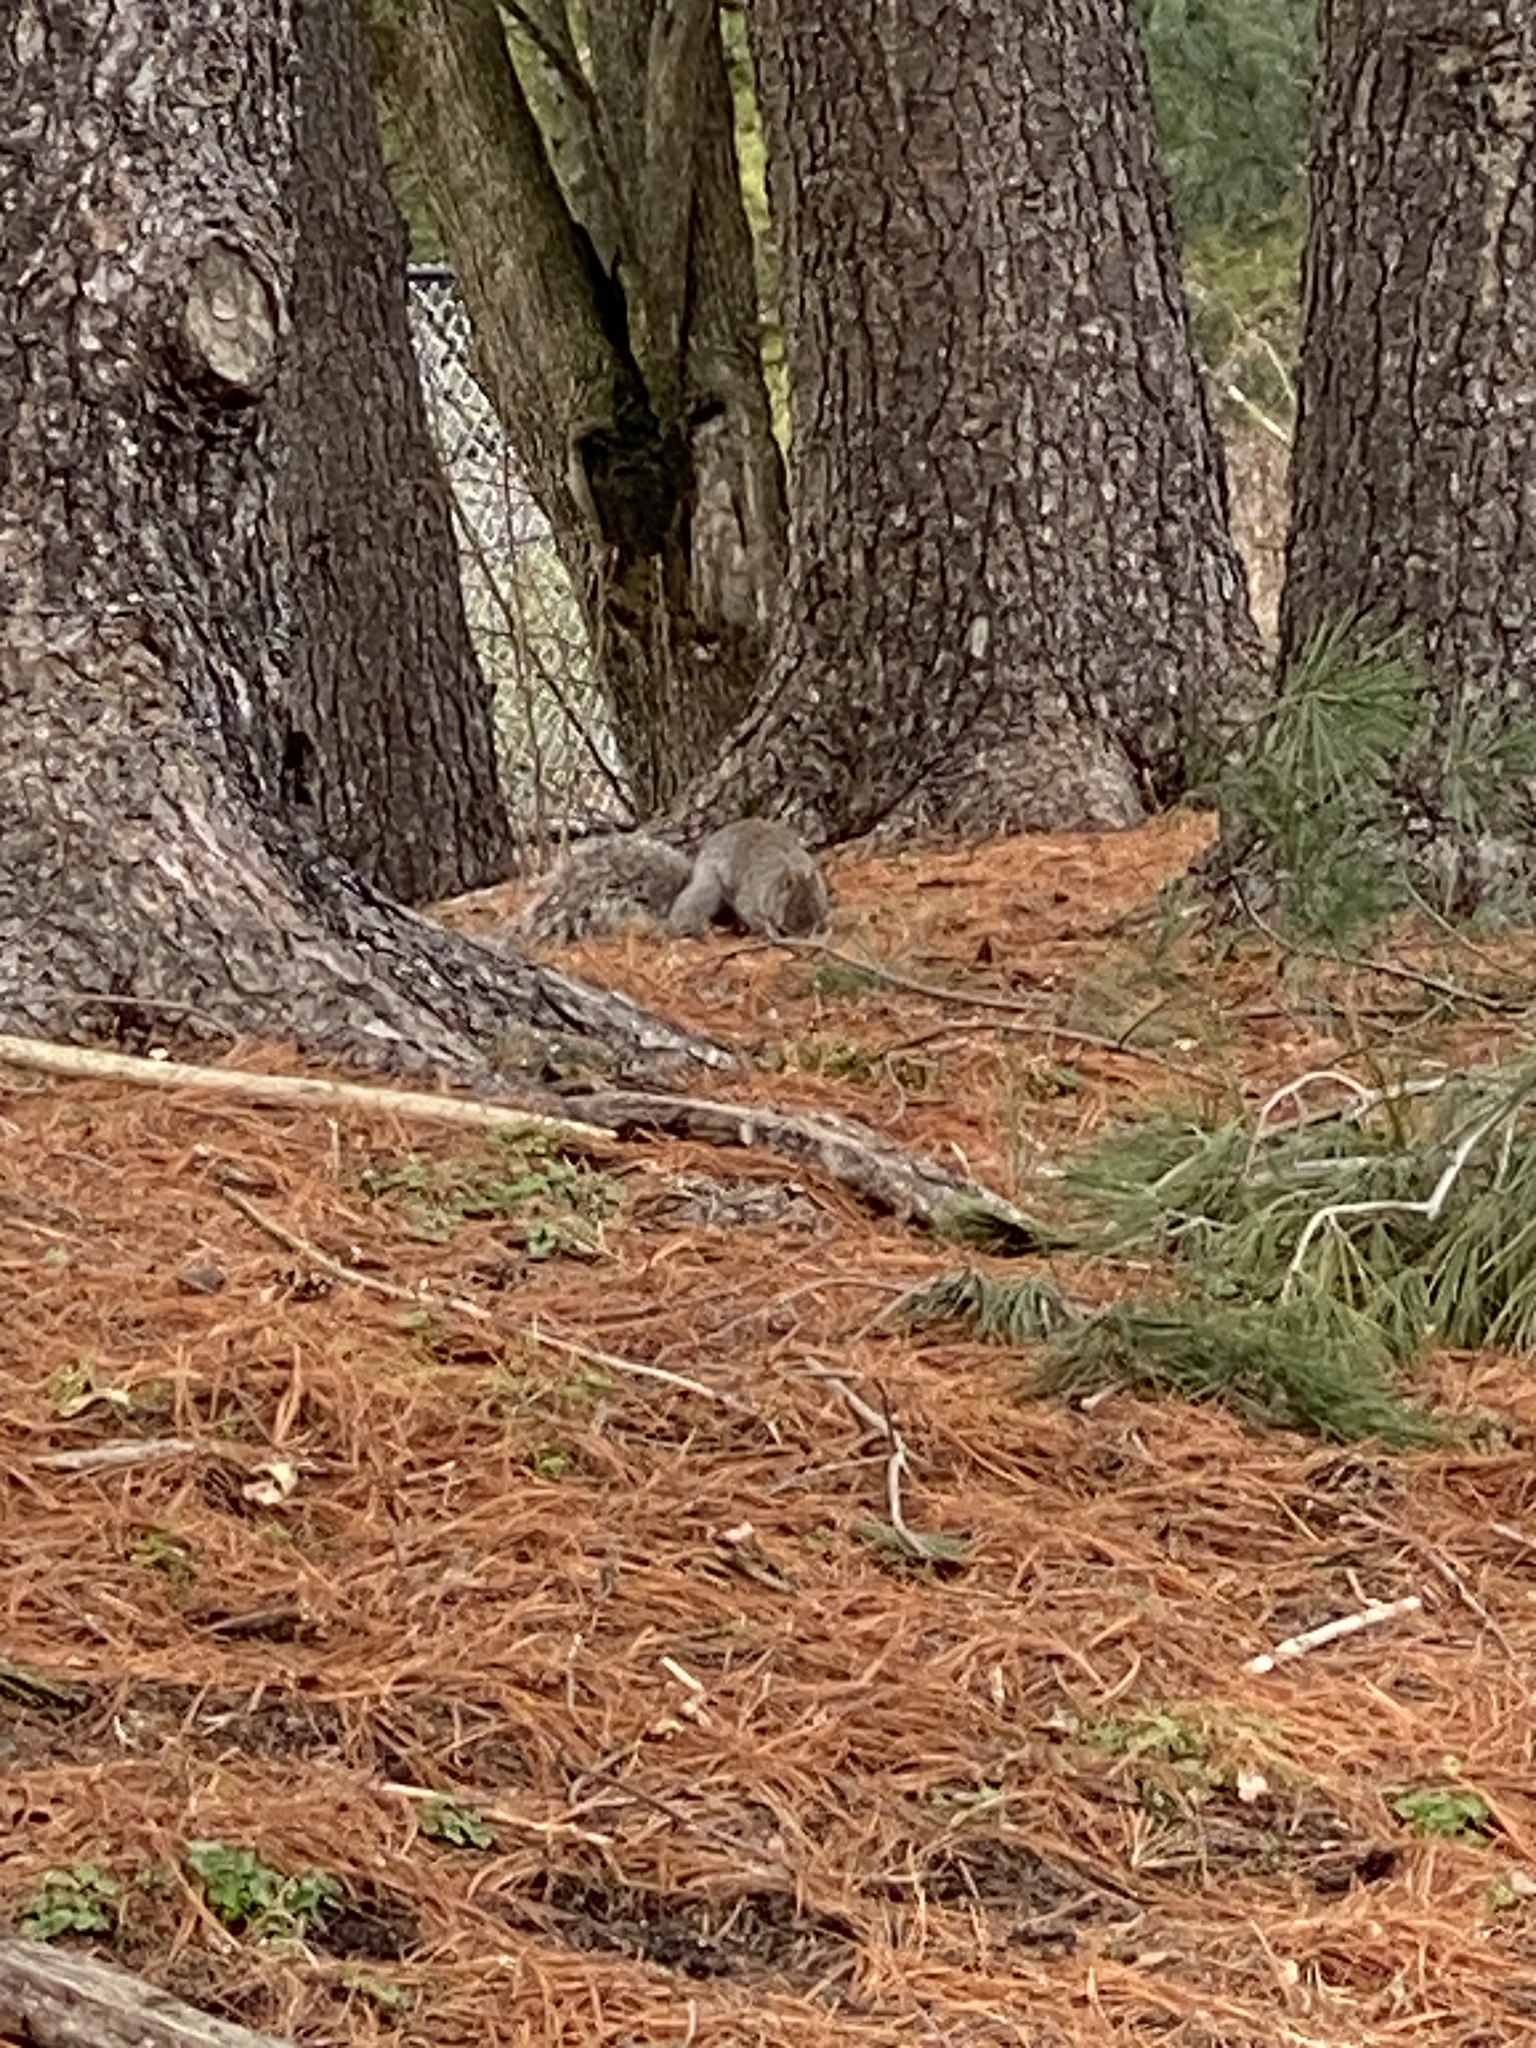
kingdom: Animalia
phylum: Chordata
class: Mammalia
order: Rodentia
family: Sciuridae
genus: Sciurus
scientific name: Sciurus carolinensis
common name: Eastern gray squirrel
